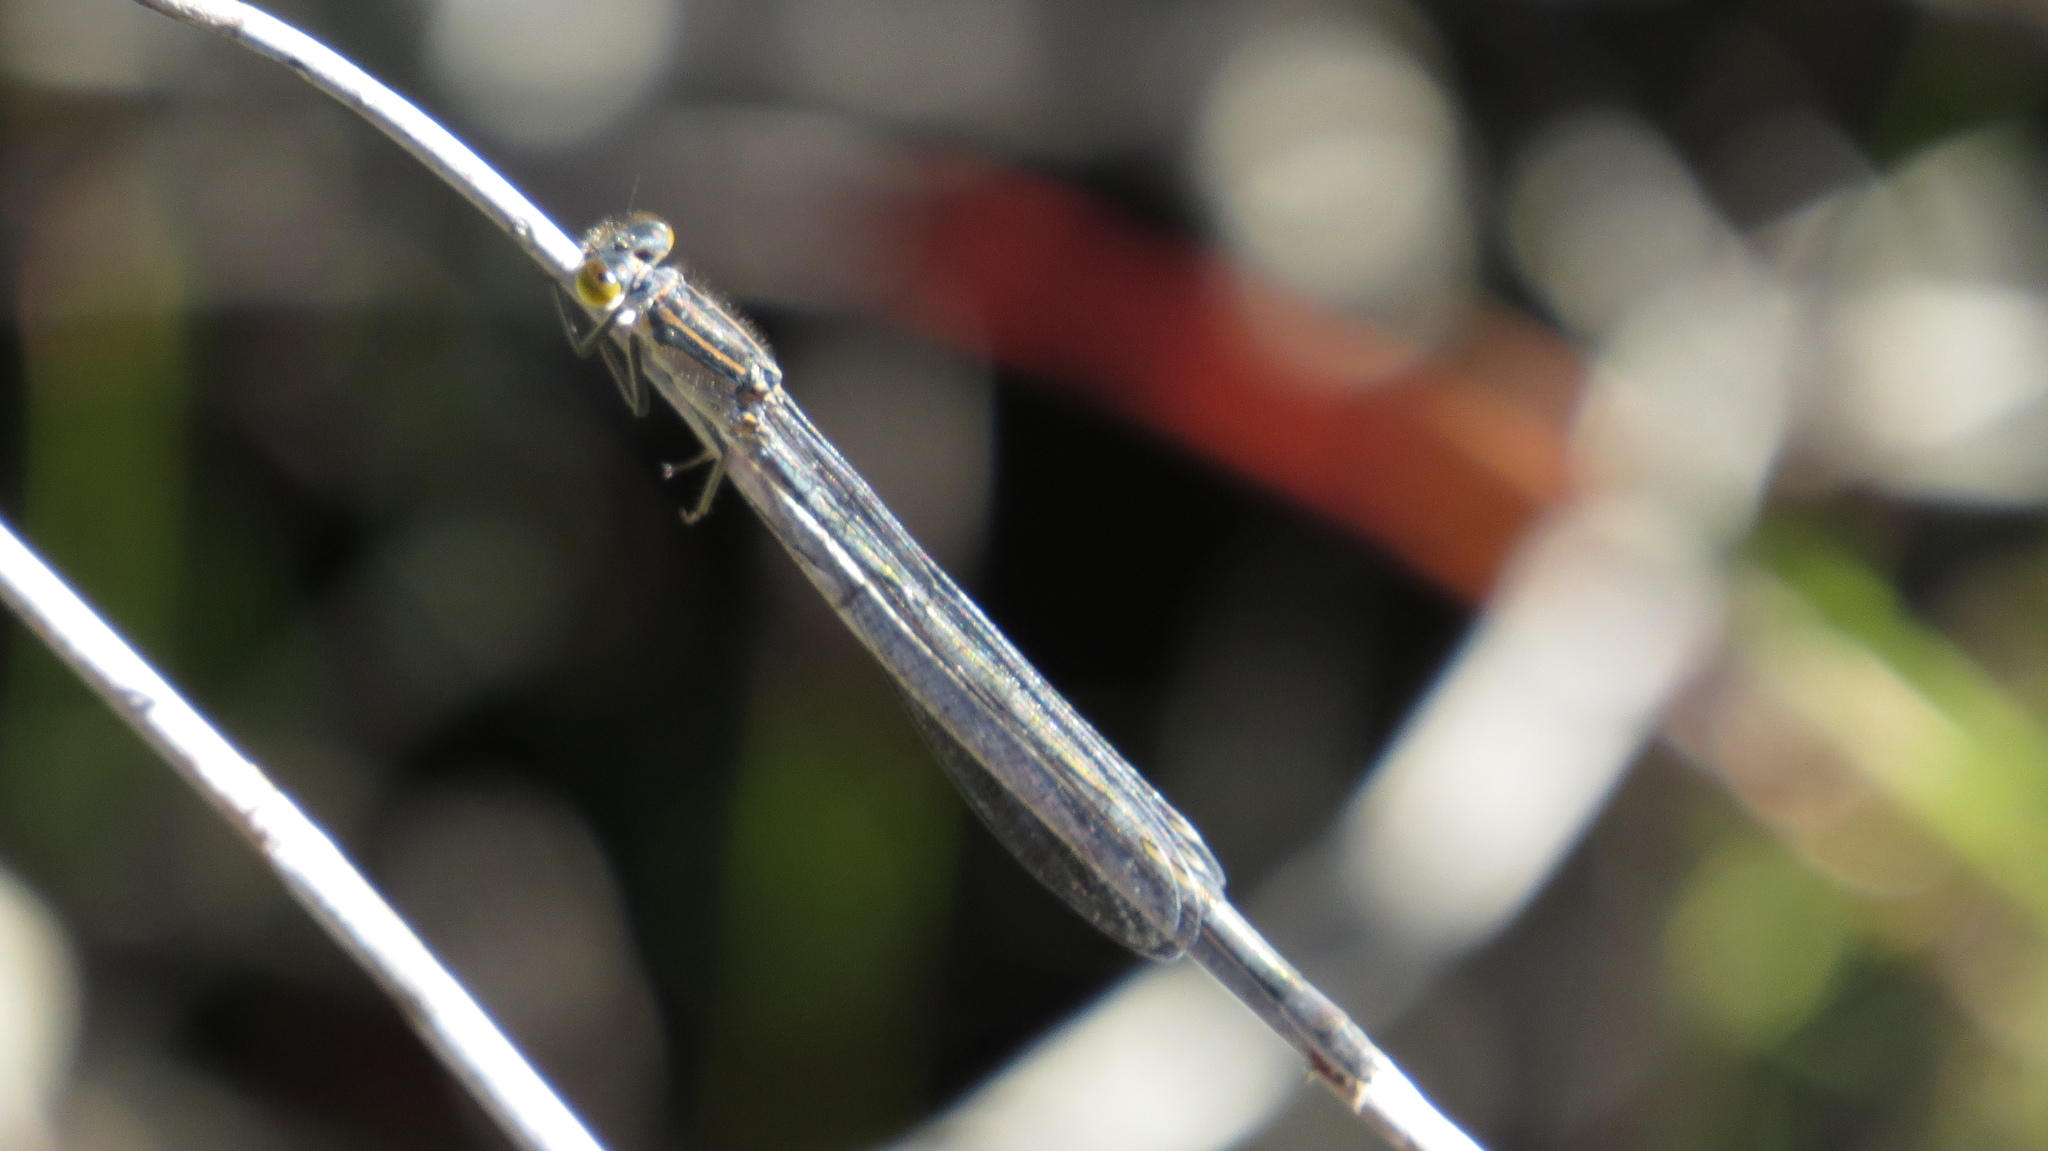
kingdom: Animalia
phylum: Arthropoda
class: Insecta
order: Odonata
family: Coenagrionidae
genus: Ischnura
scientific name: Ischnura heterosticta
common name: Common bluetail
